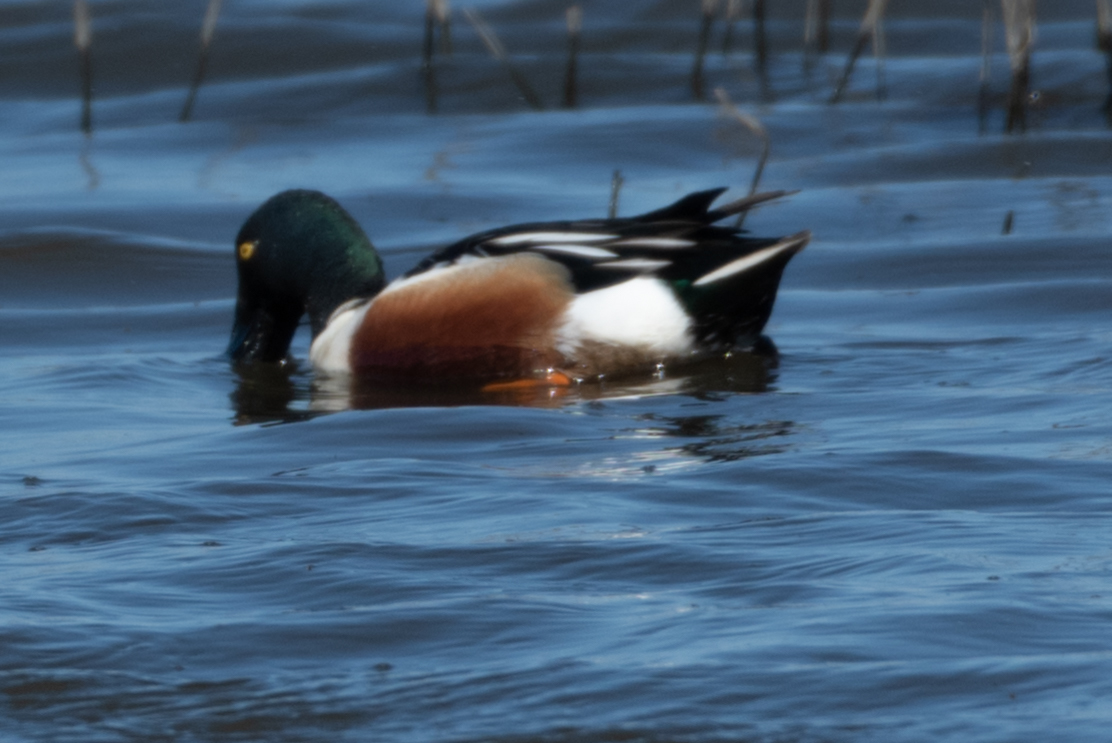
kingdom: Animalia
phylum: Chordata
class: Aves
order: Anseriformes
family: Anatidae
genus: Spatula
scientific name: Spatula clypeata
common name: Northern shoveler
